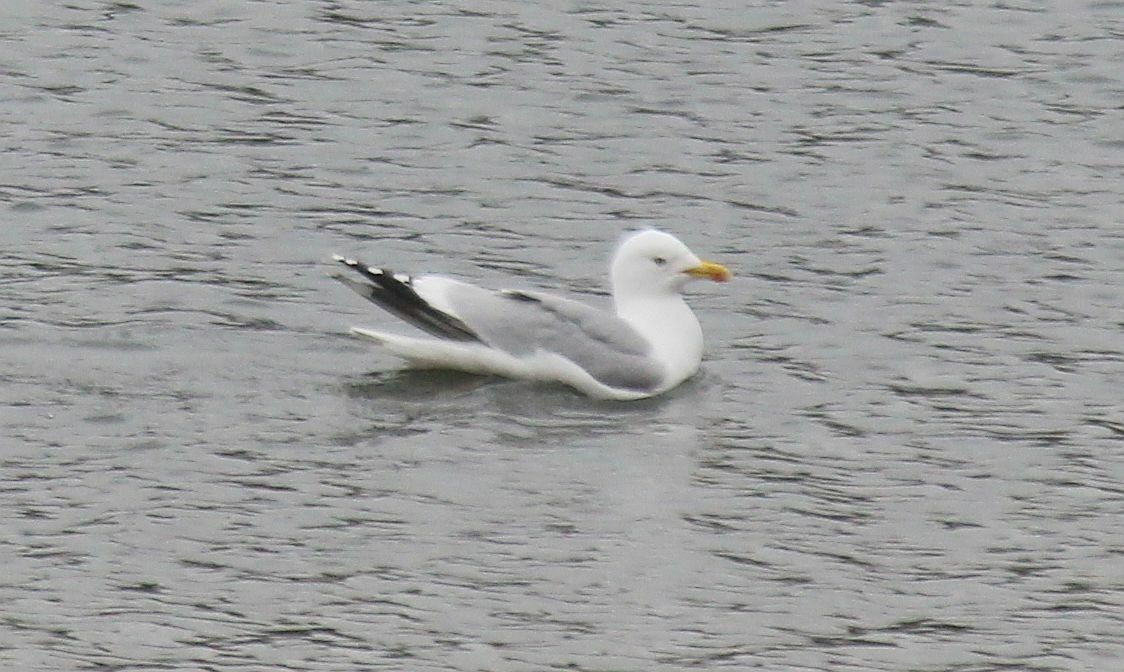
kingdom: Animalia
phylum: Chordata
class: Aves
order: Charadriiformes
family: Laridae
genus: Larus
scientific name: Larus argentatus
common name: Herring gull
